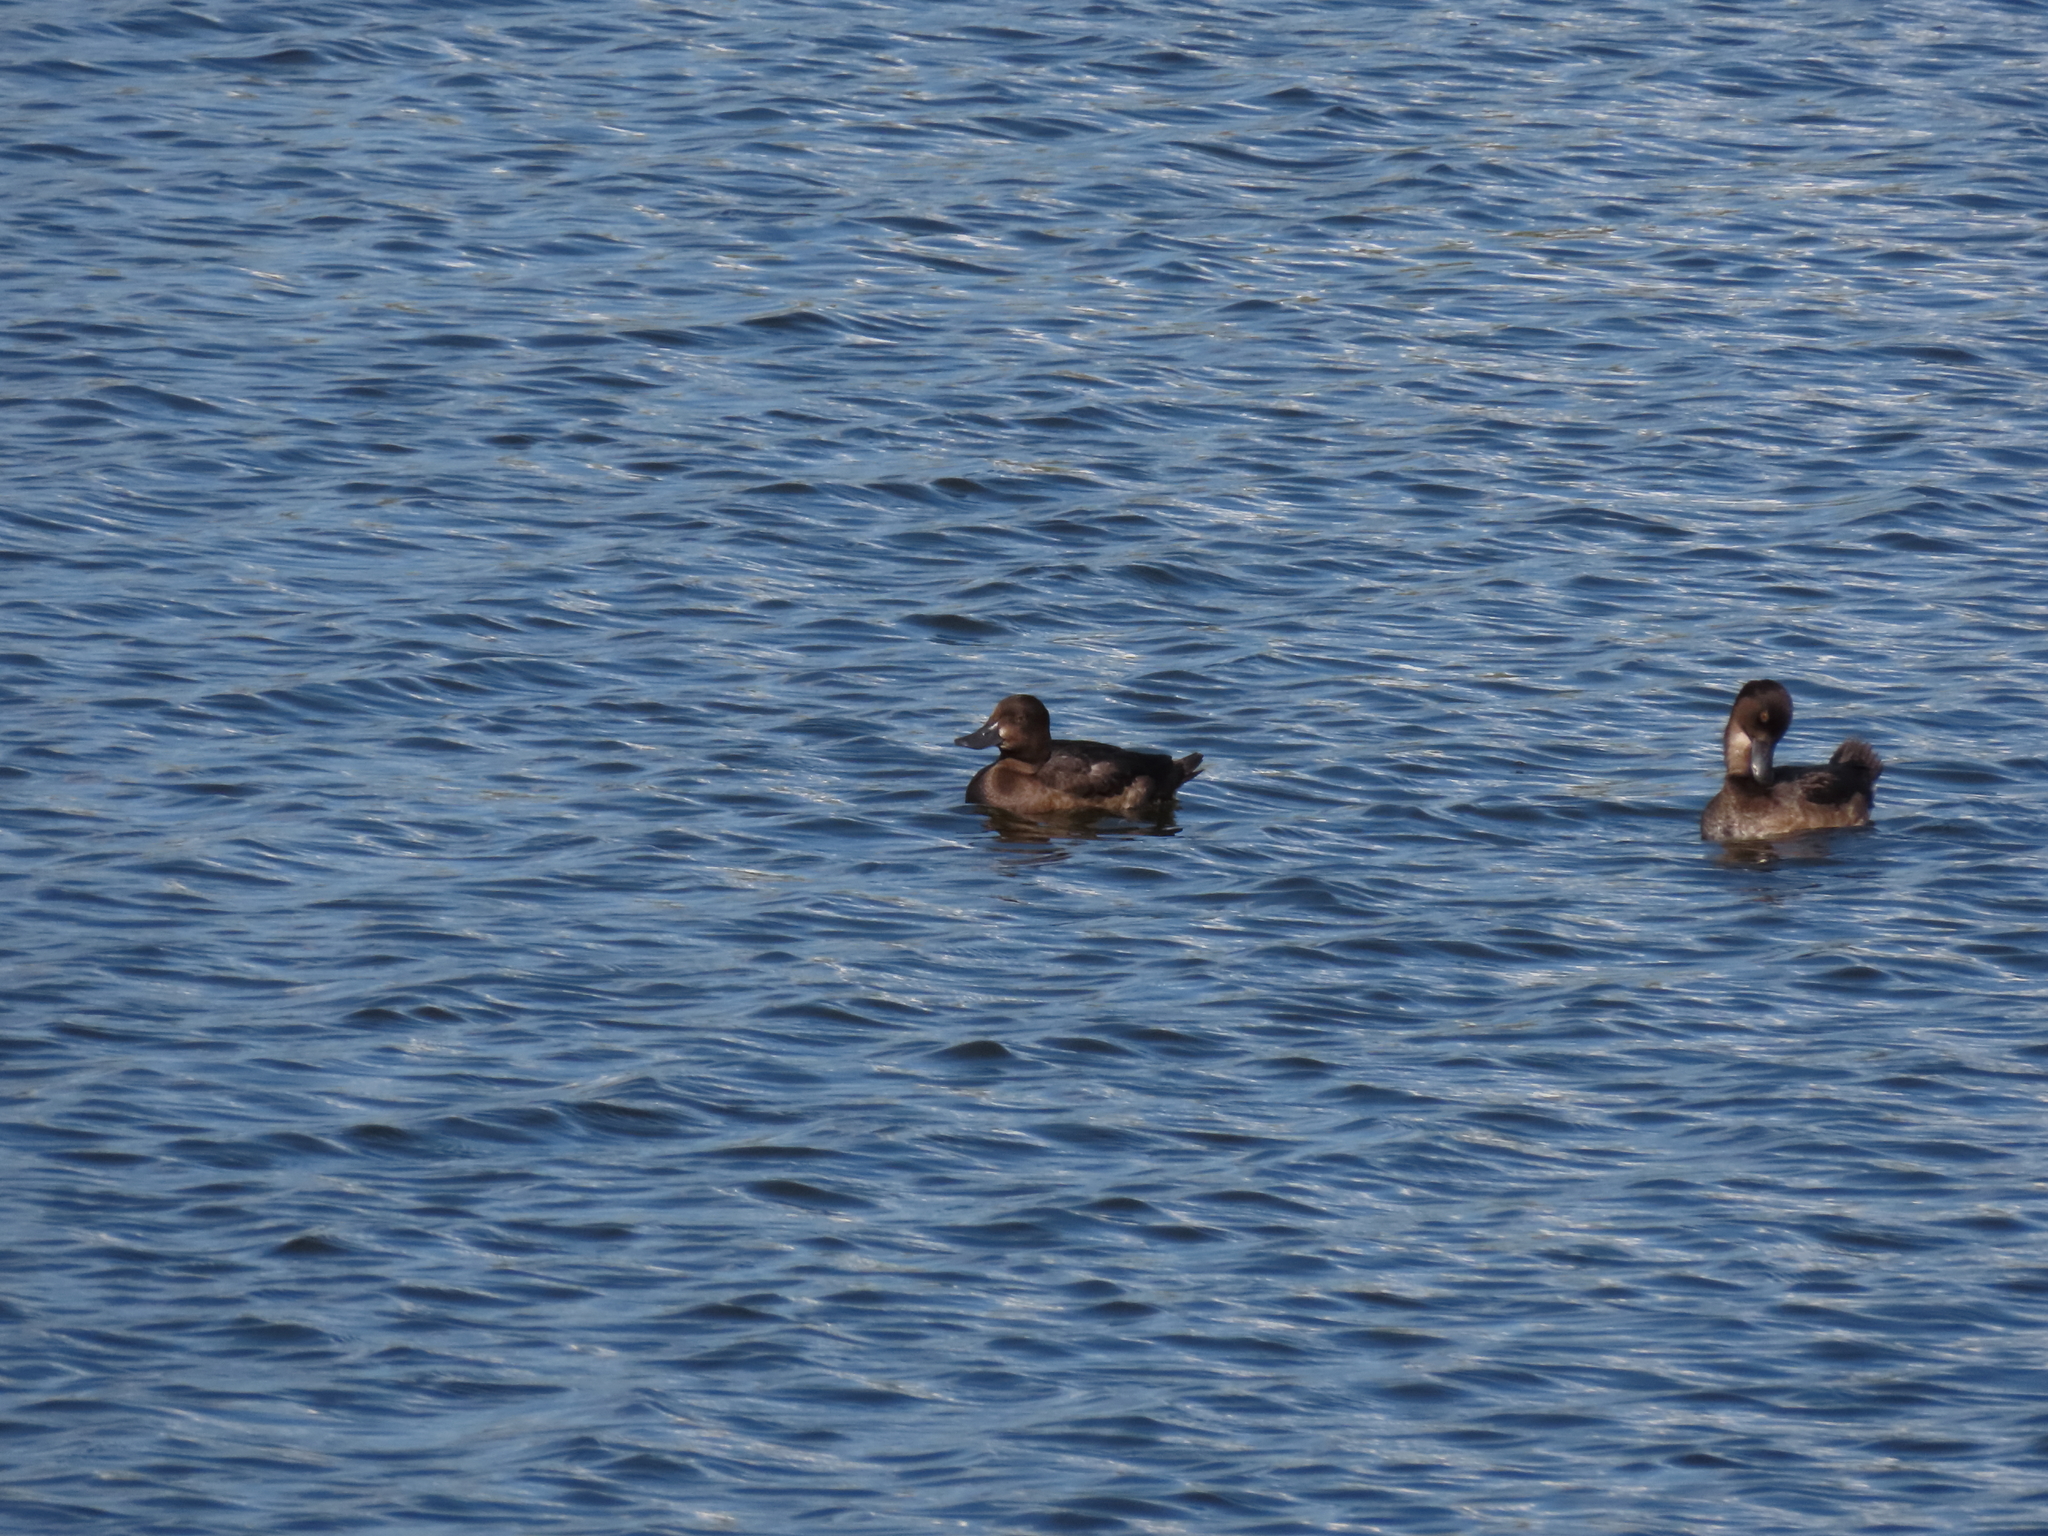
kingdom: Animalia
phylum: Chordata
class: Aves
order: Anseriformes
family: Anatidae
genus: Aythya
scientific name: Aythya fuligula
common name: Tufted duck
